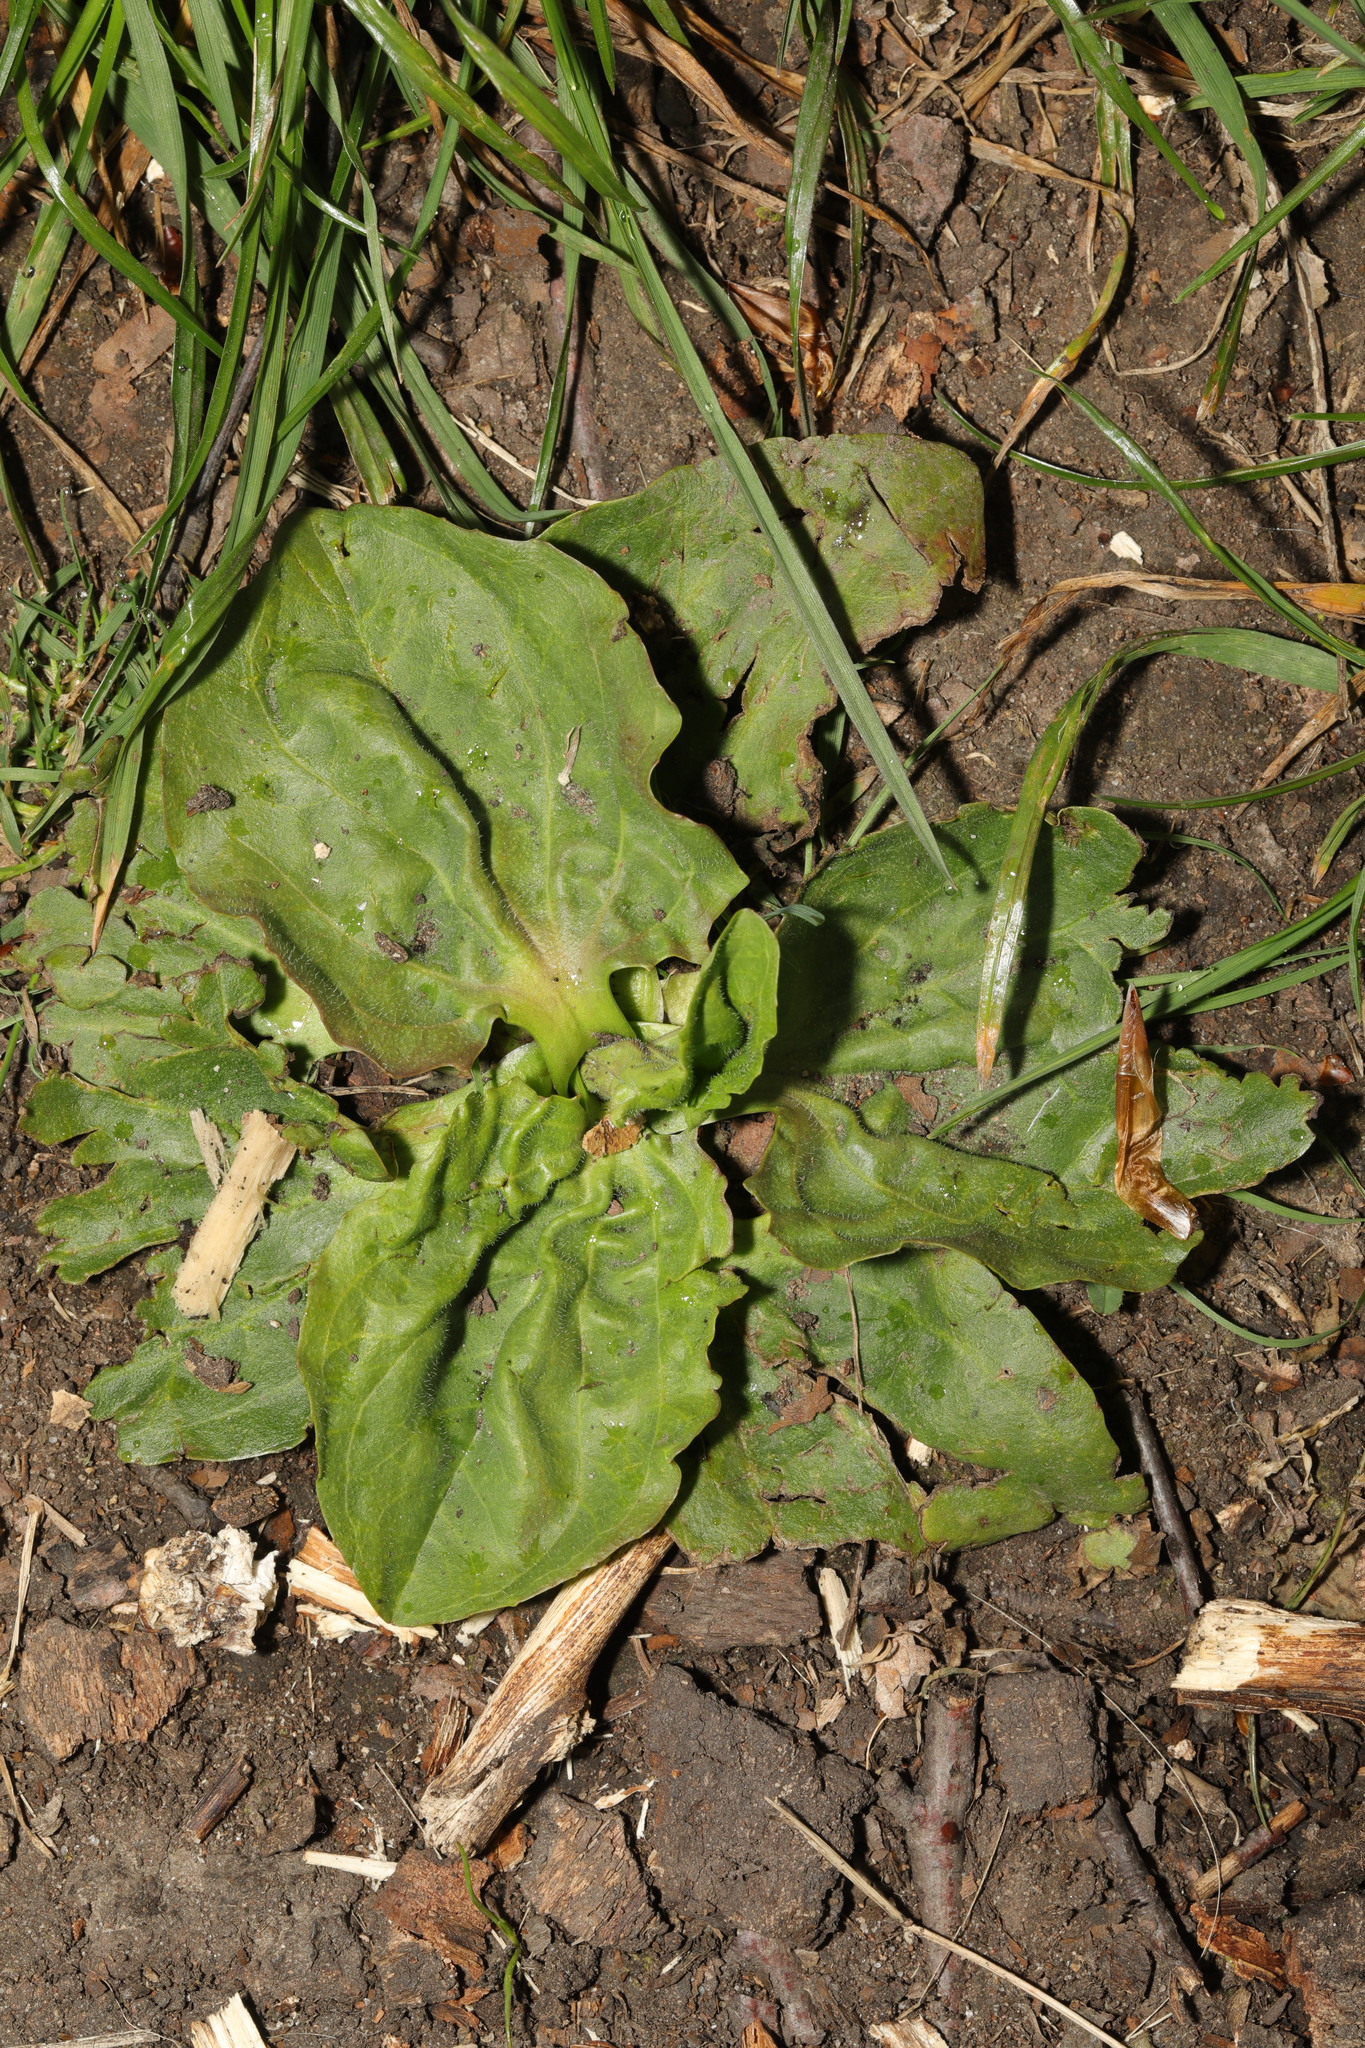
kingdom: Plantae
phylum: Tracheophyta
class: Magnoliopsida
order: Lamiales
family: Plantaginaceae
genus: Plantago
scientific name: Plantago major
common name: Common plantain
